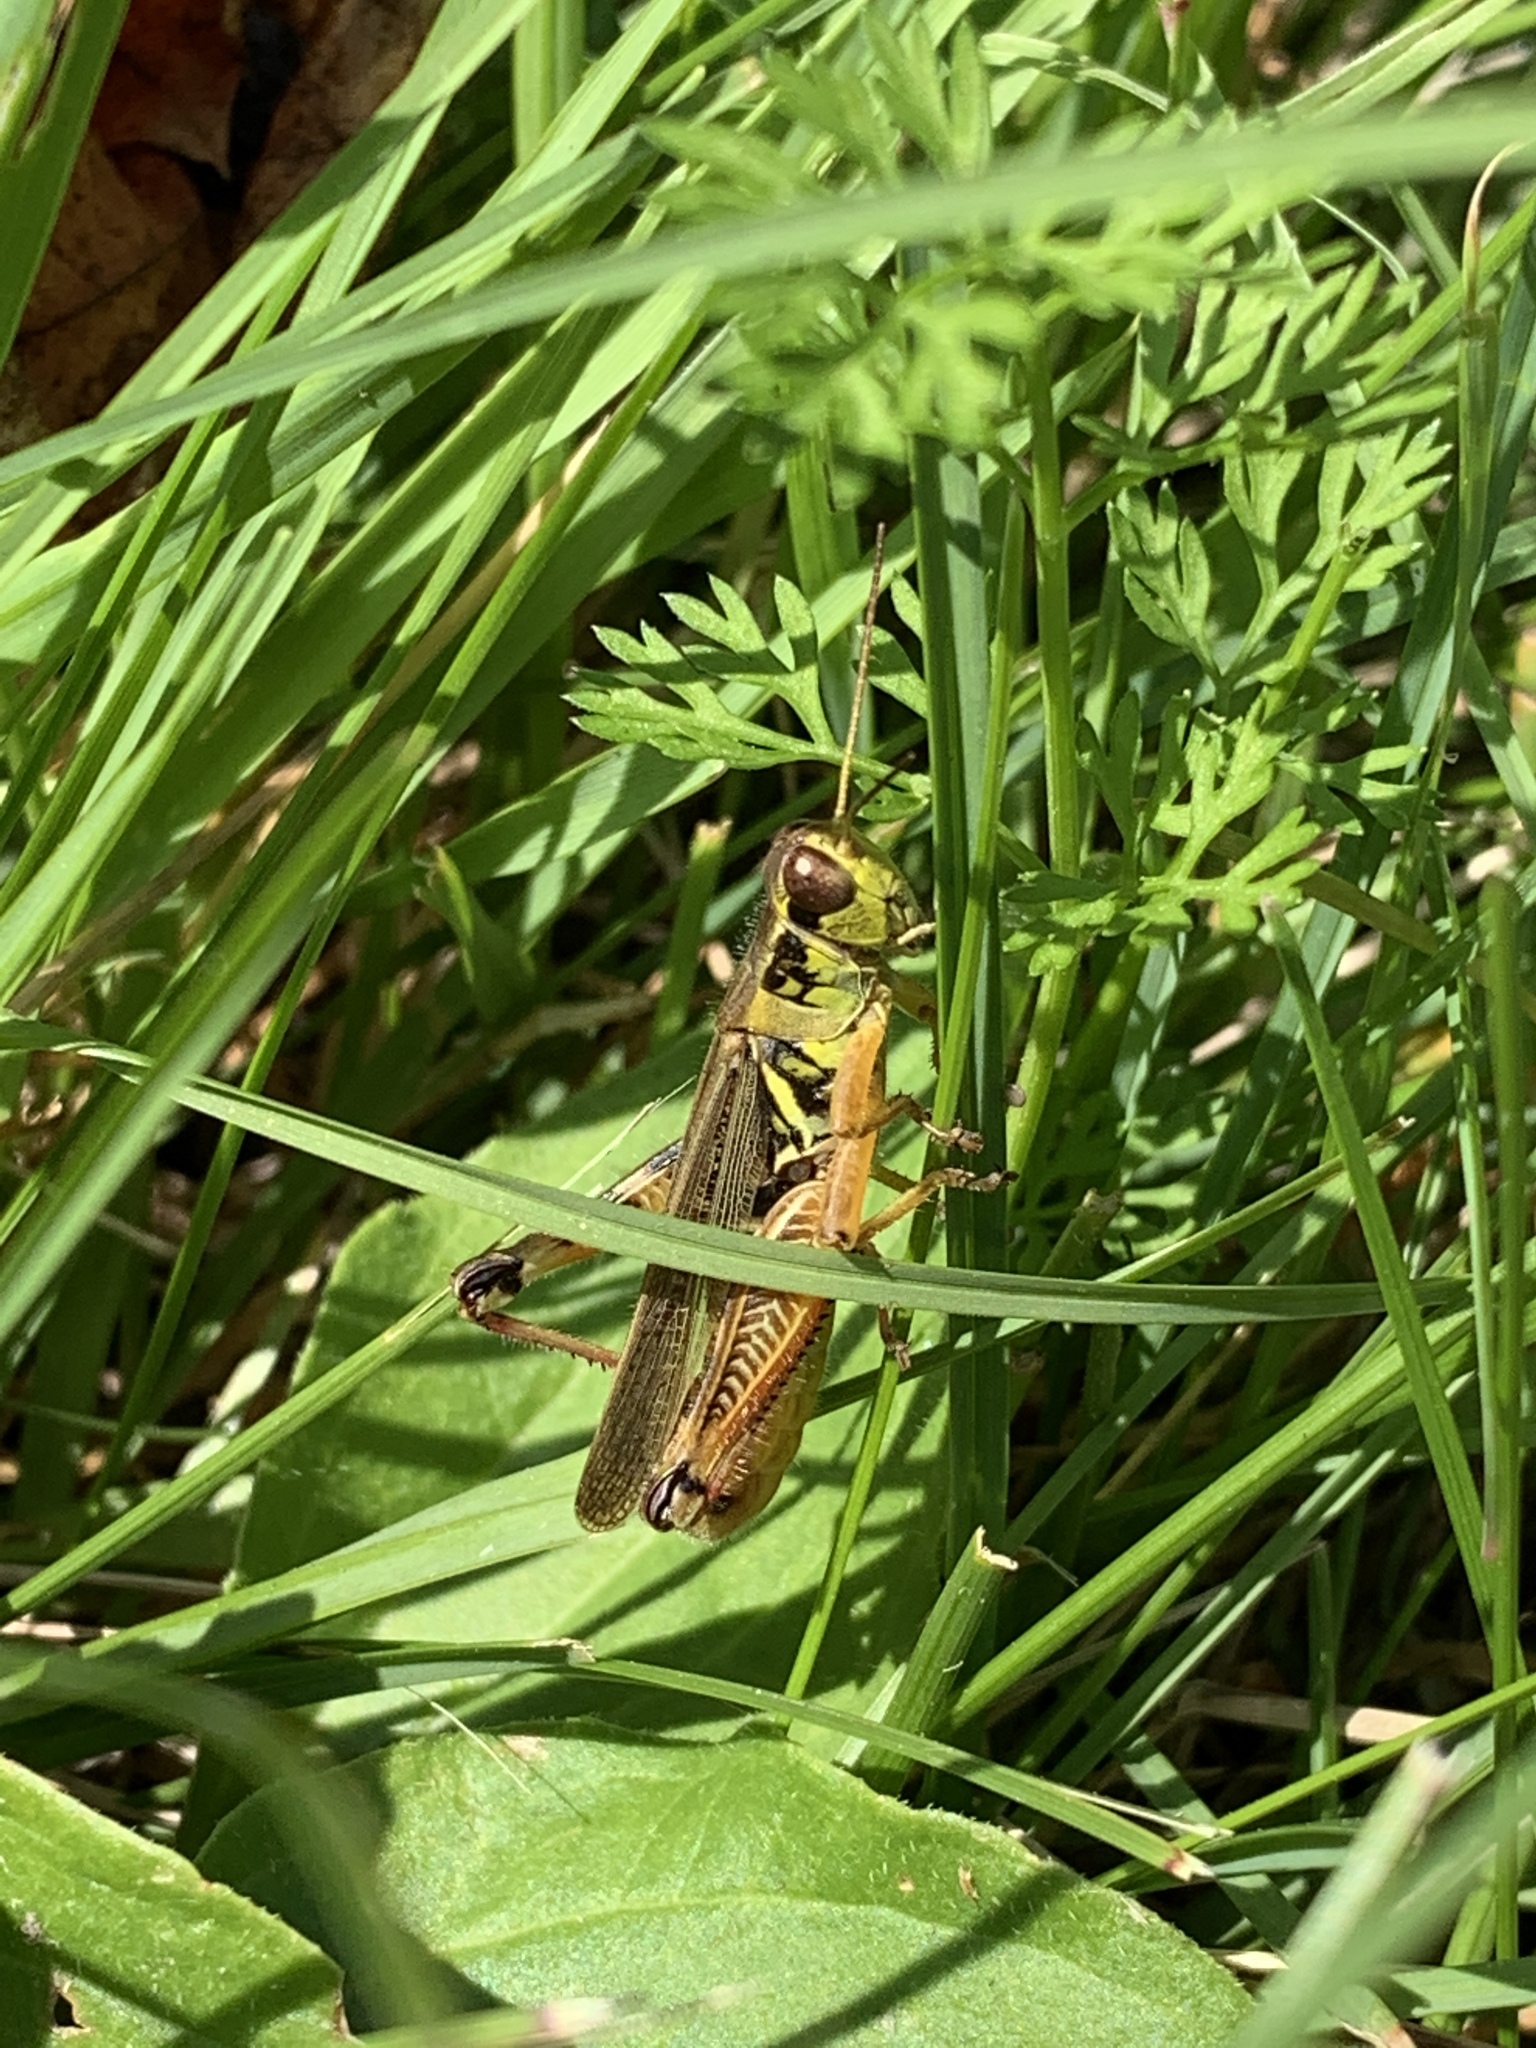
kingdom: Animalia
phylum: Arthropoda
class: Insecta
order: Orthoptera
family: Acrididae
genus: Melanoplus
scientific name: Melanoplus femurrubrum
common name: Red-legged grasshopper
